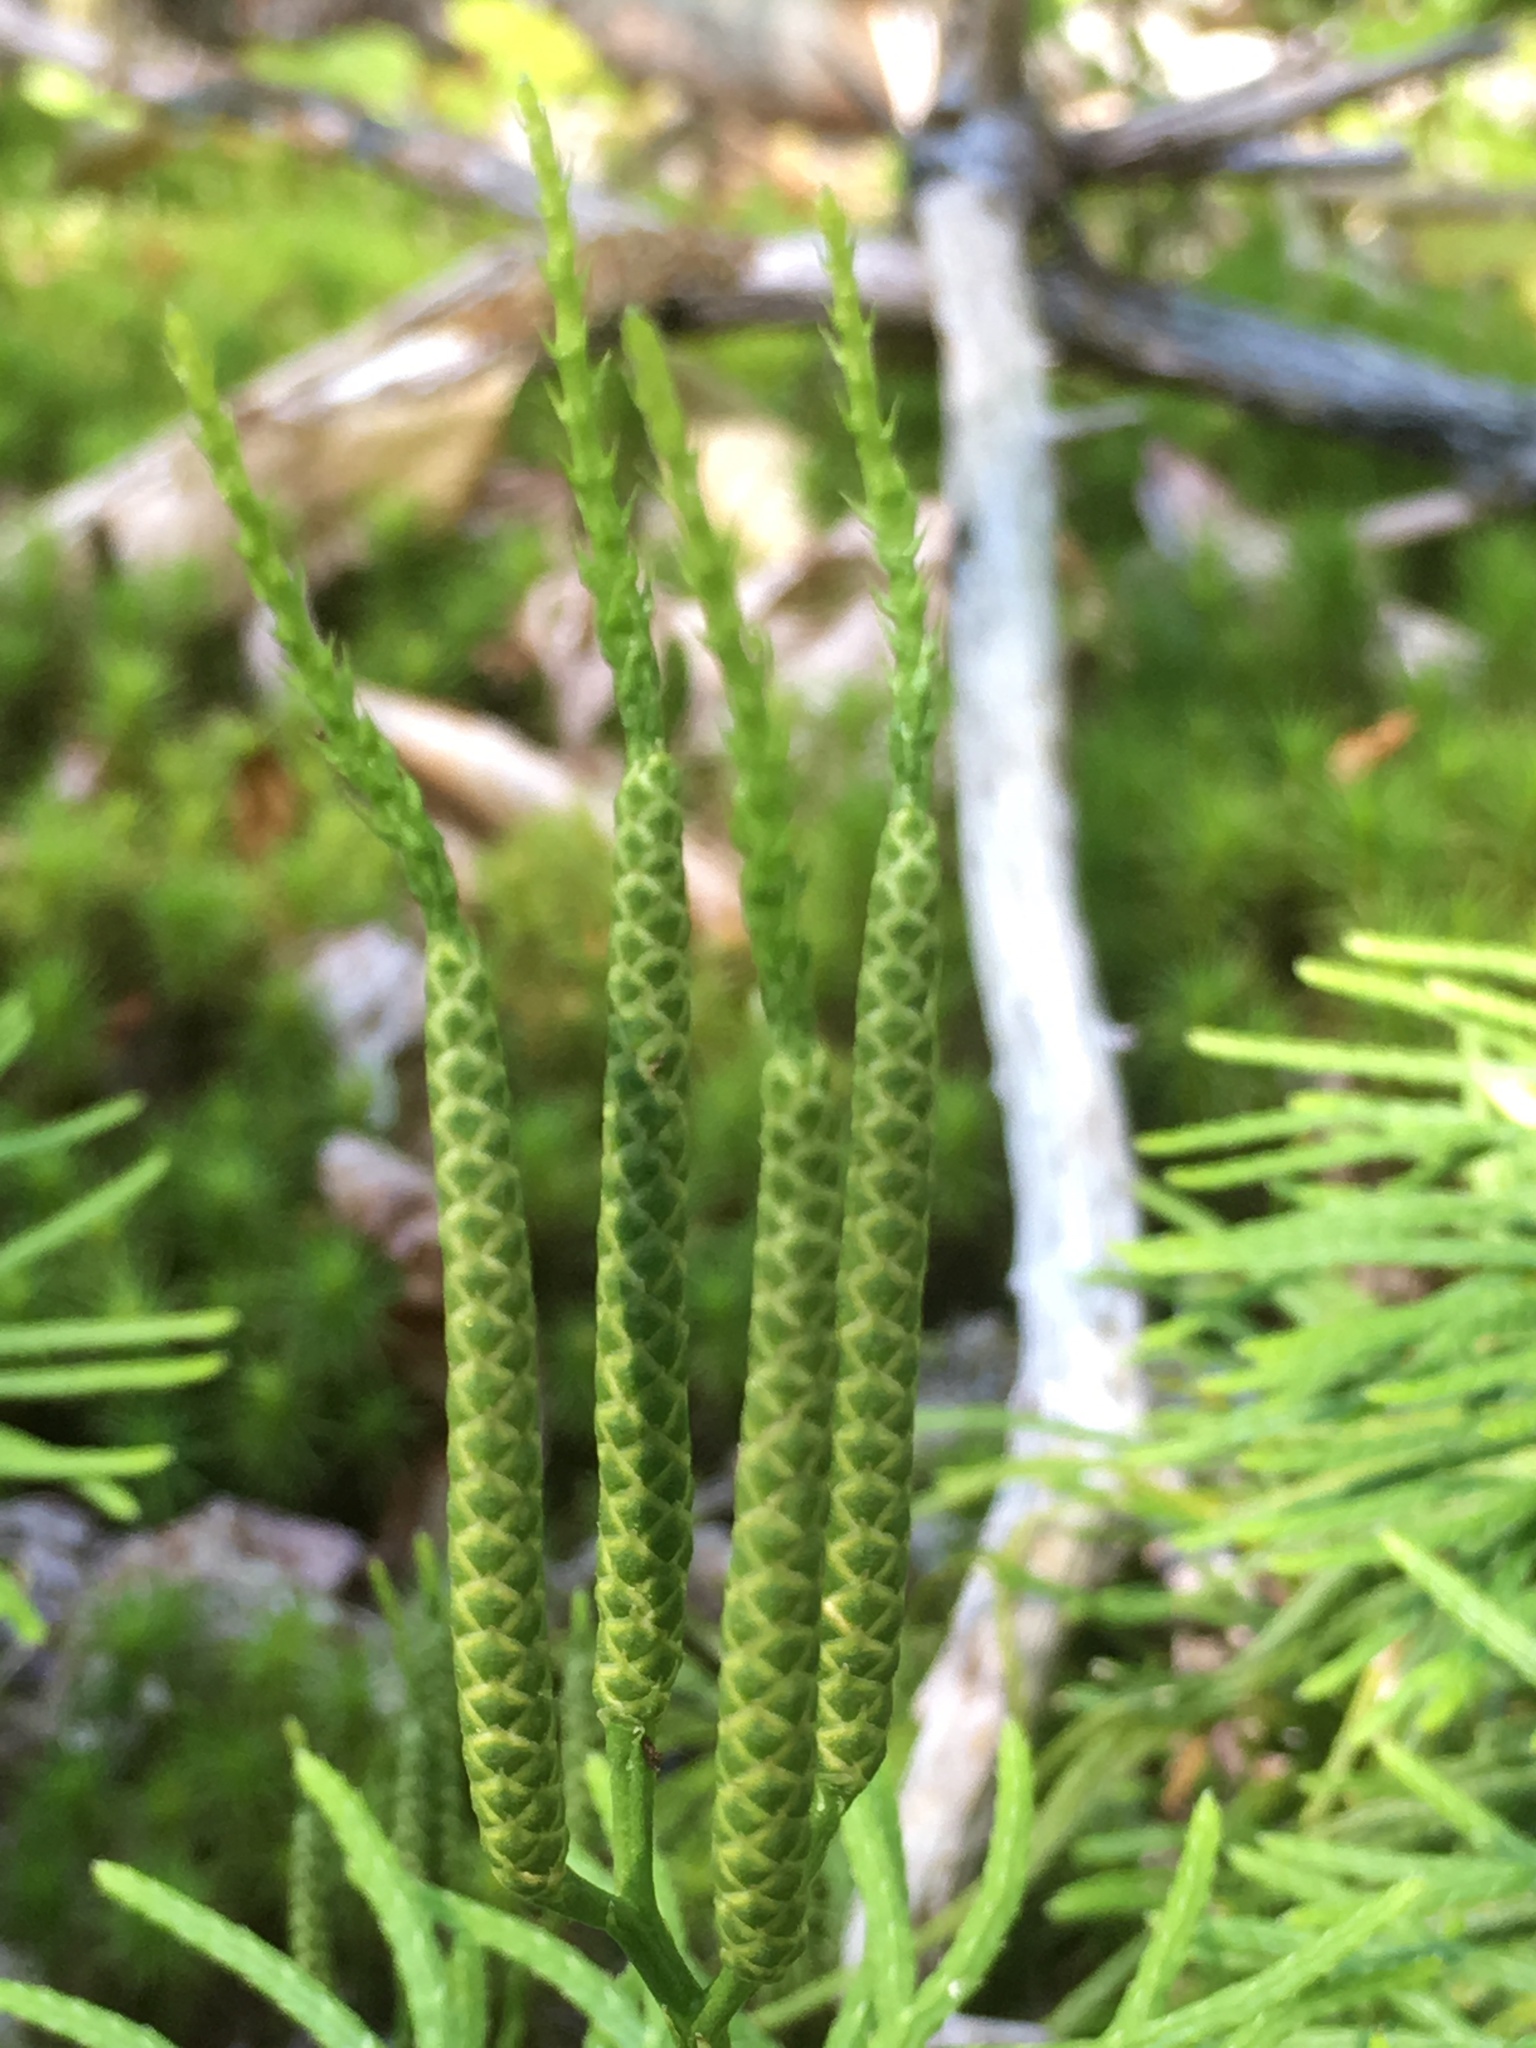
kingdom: Plantae
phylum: Tracheophyta
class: Lycopodiopsida
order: Lycopodiales
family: Lycopodiaceae
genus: Diphasiastrum
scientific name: Diphasiastrum digitatum
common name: Southern running-pine
